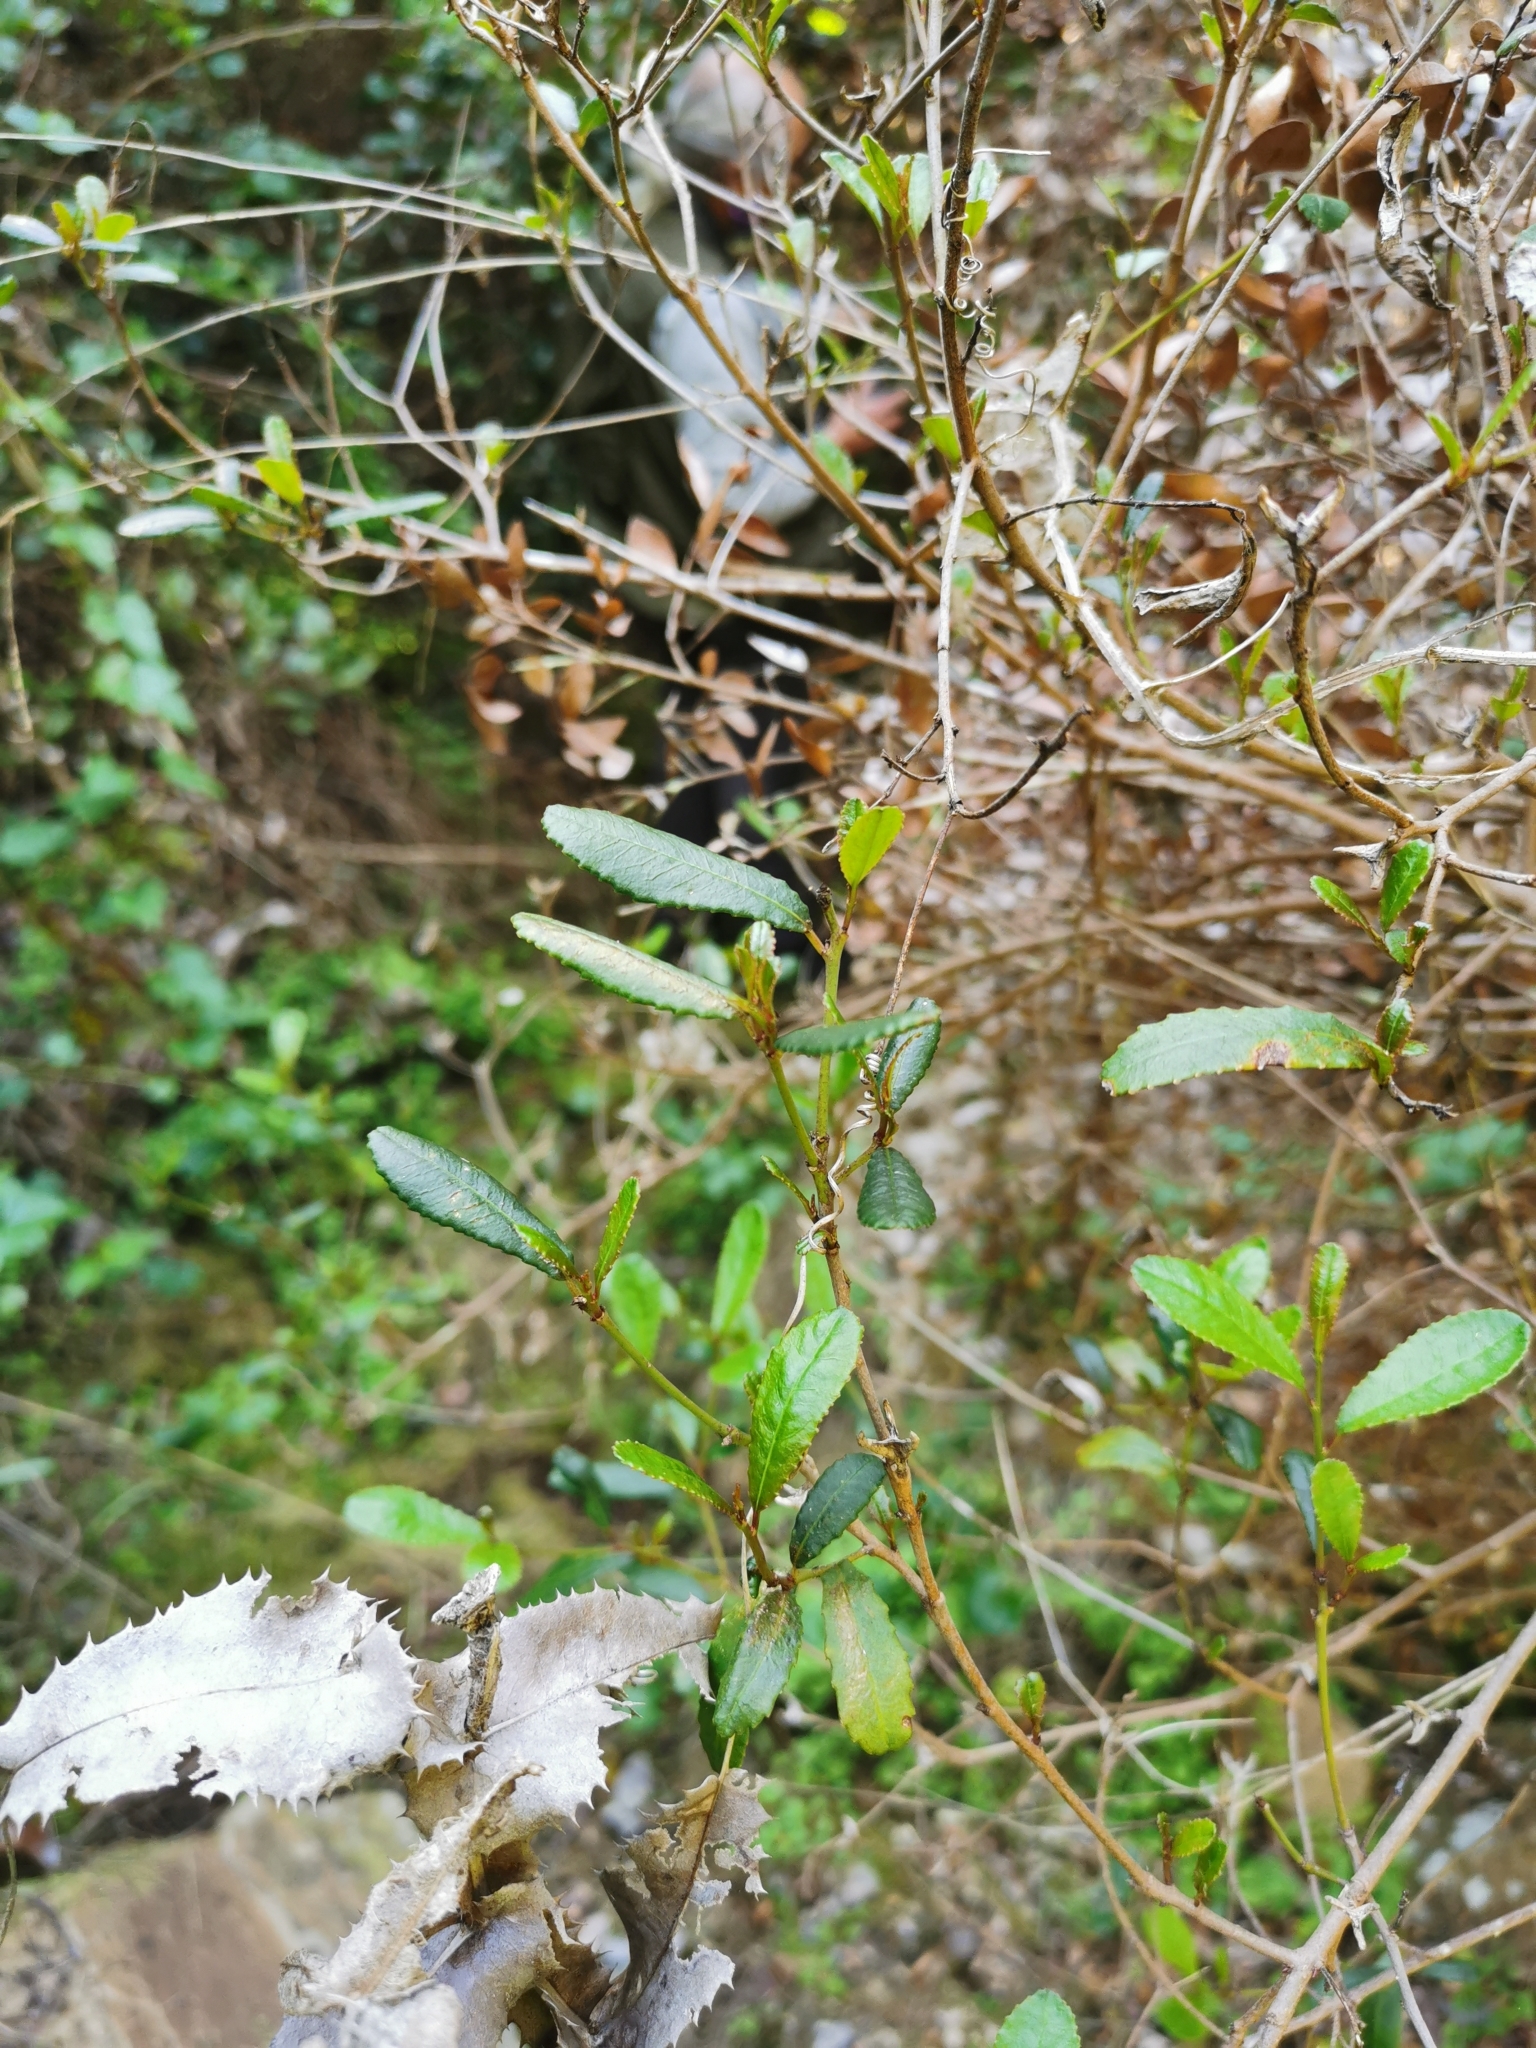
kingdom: Plantae
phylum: Tracheophyta
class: Magnoliopsida
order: Malpighiales
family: Euphorbiaceae
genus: Adenopeltis
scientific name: Adenopeltis serrata
